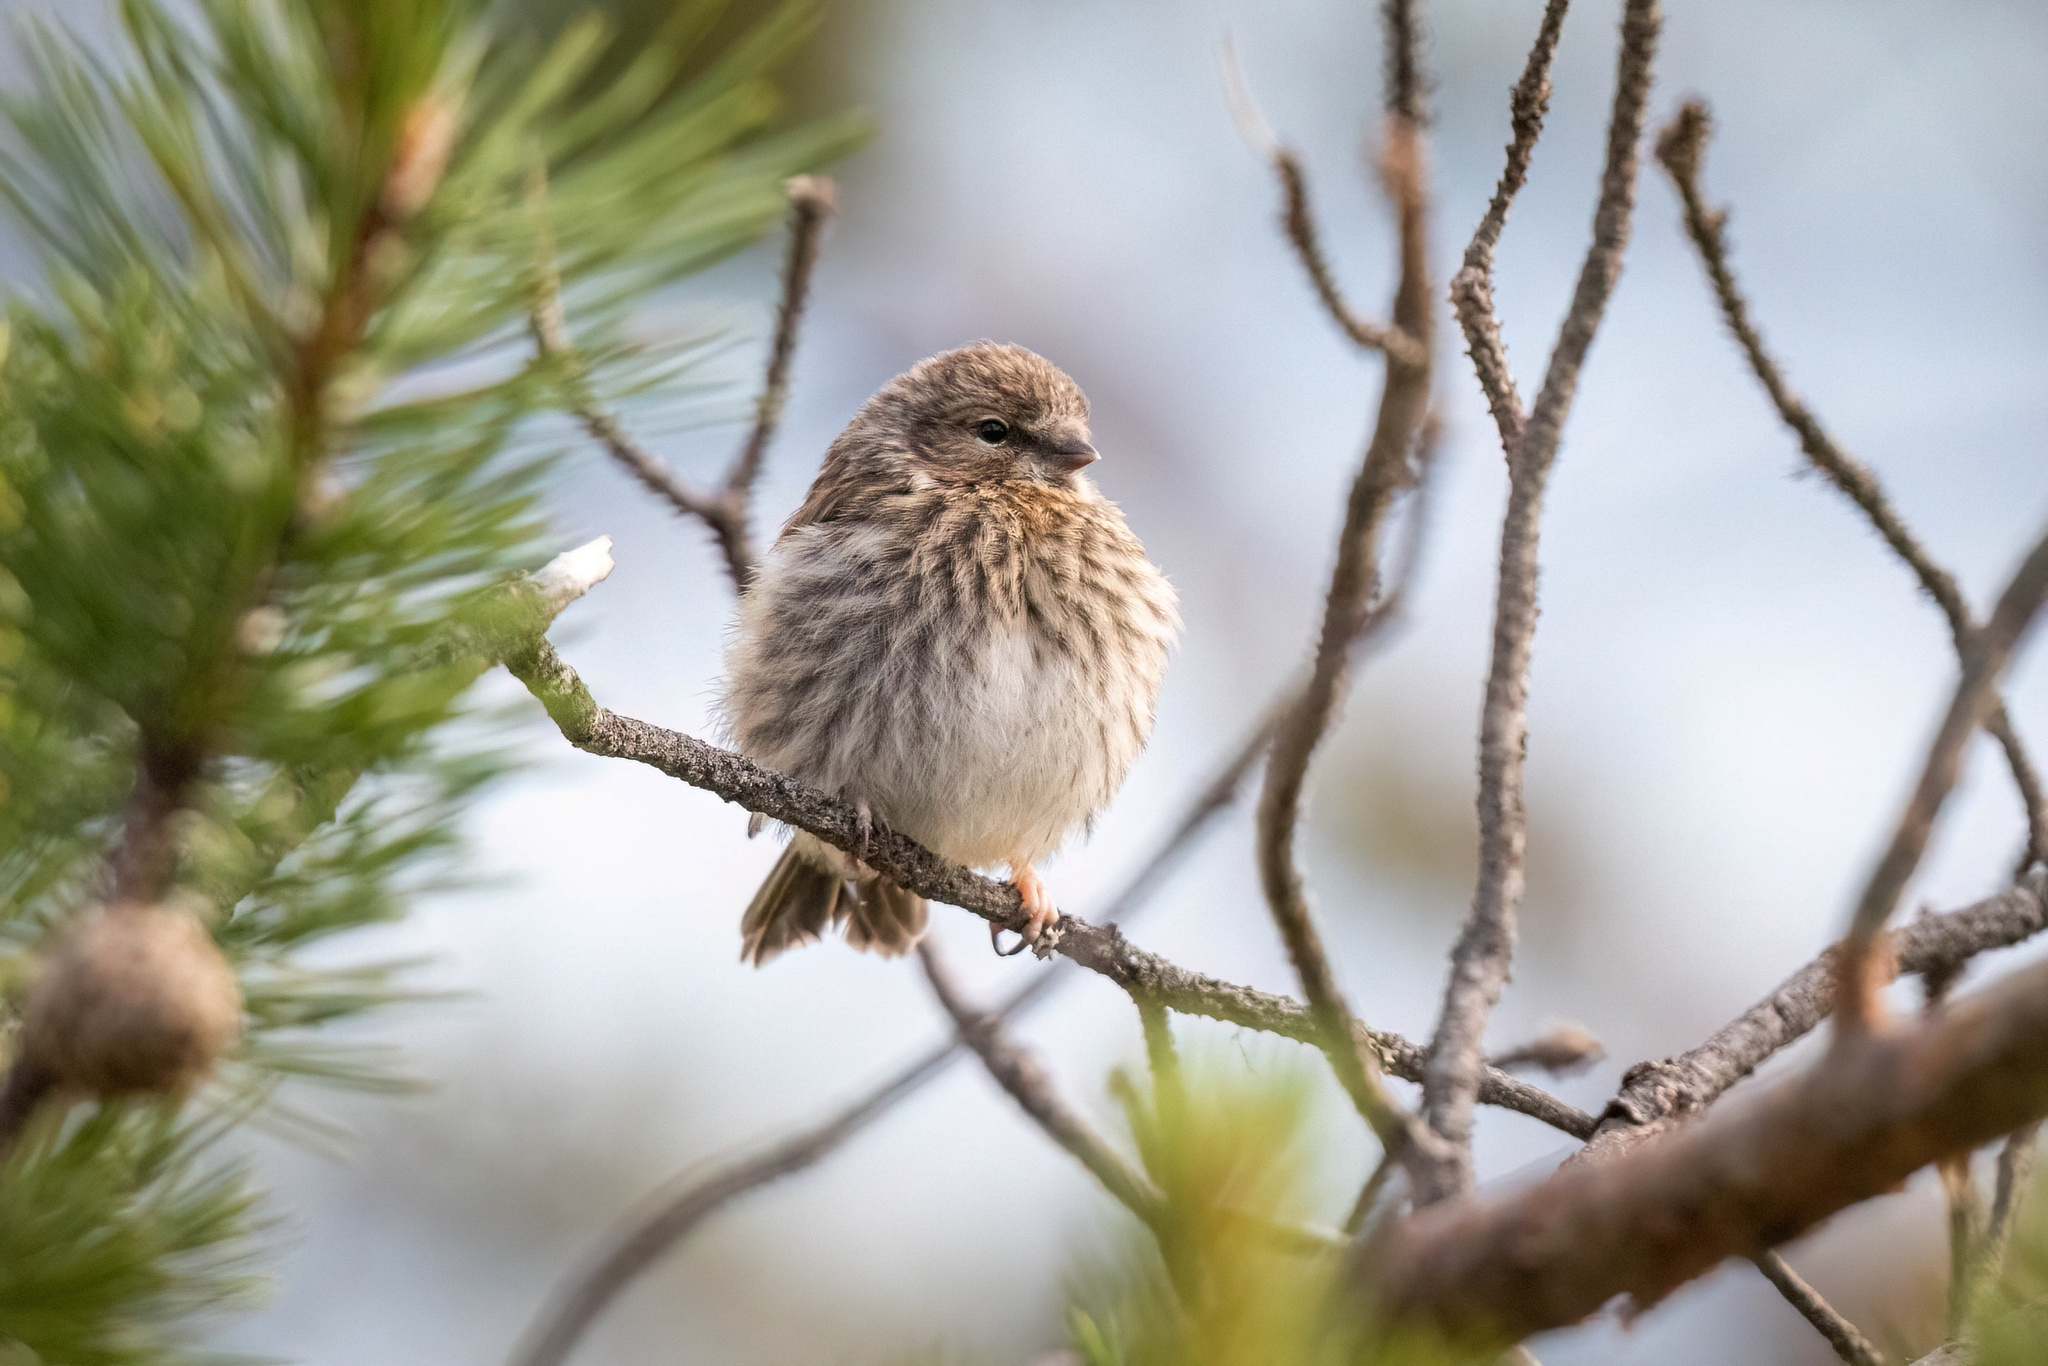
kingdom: Animalia
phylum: Chordata
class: Aves
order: Passeriformes
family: Fringillidae
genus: Acanthis
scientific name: Acanthis flammea
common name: Common redpoll
